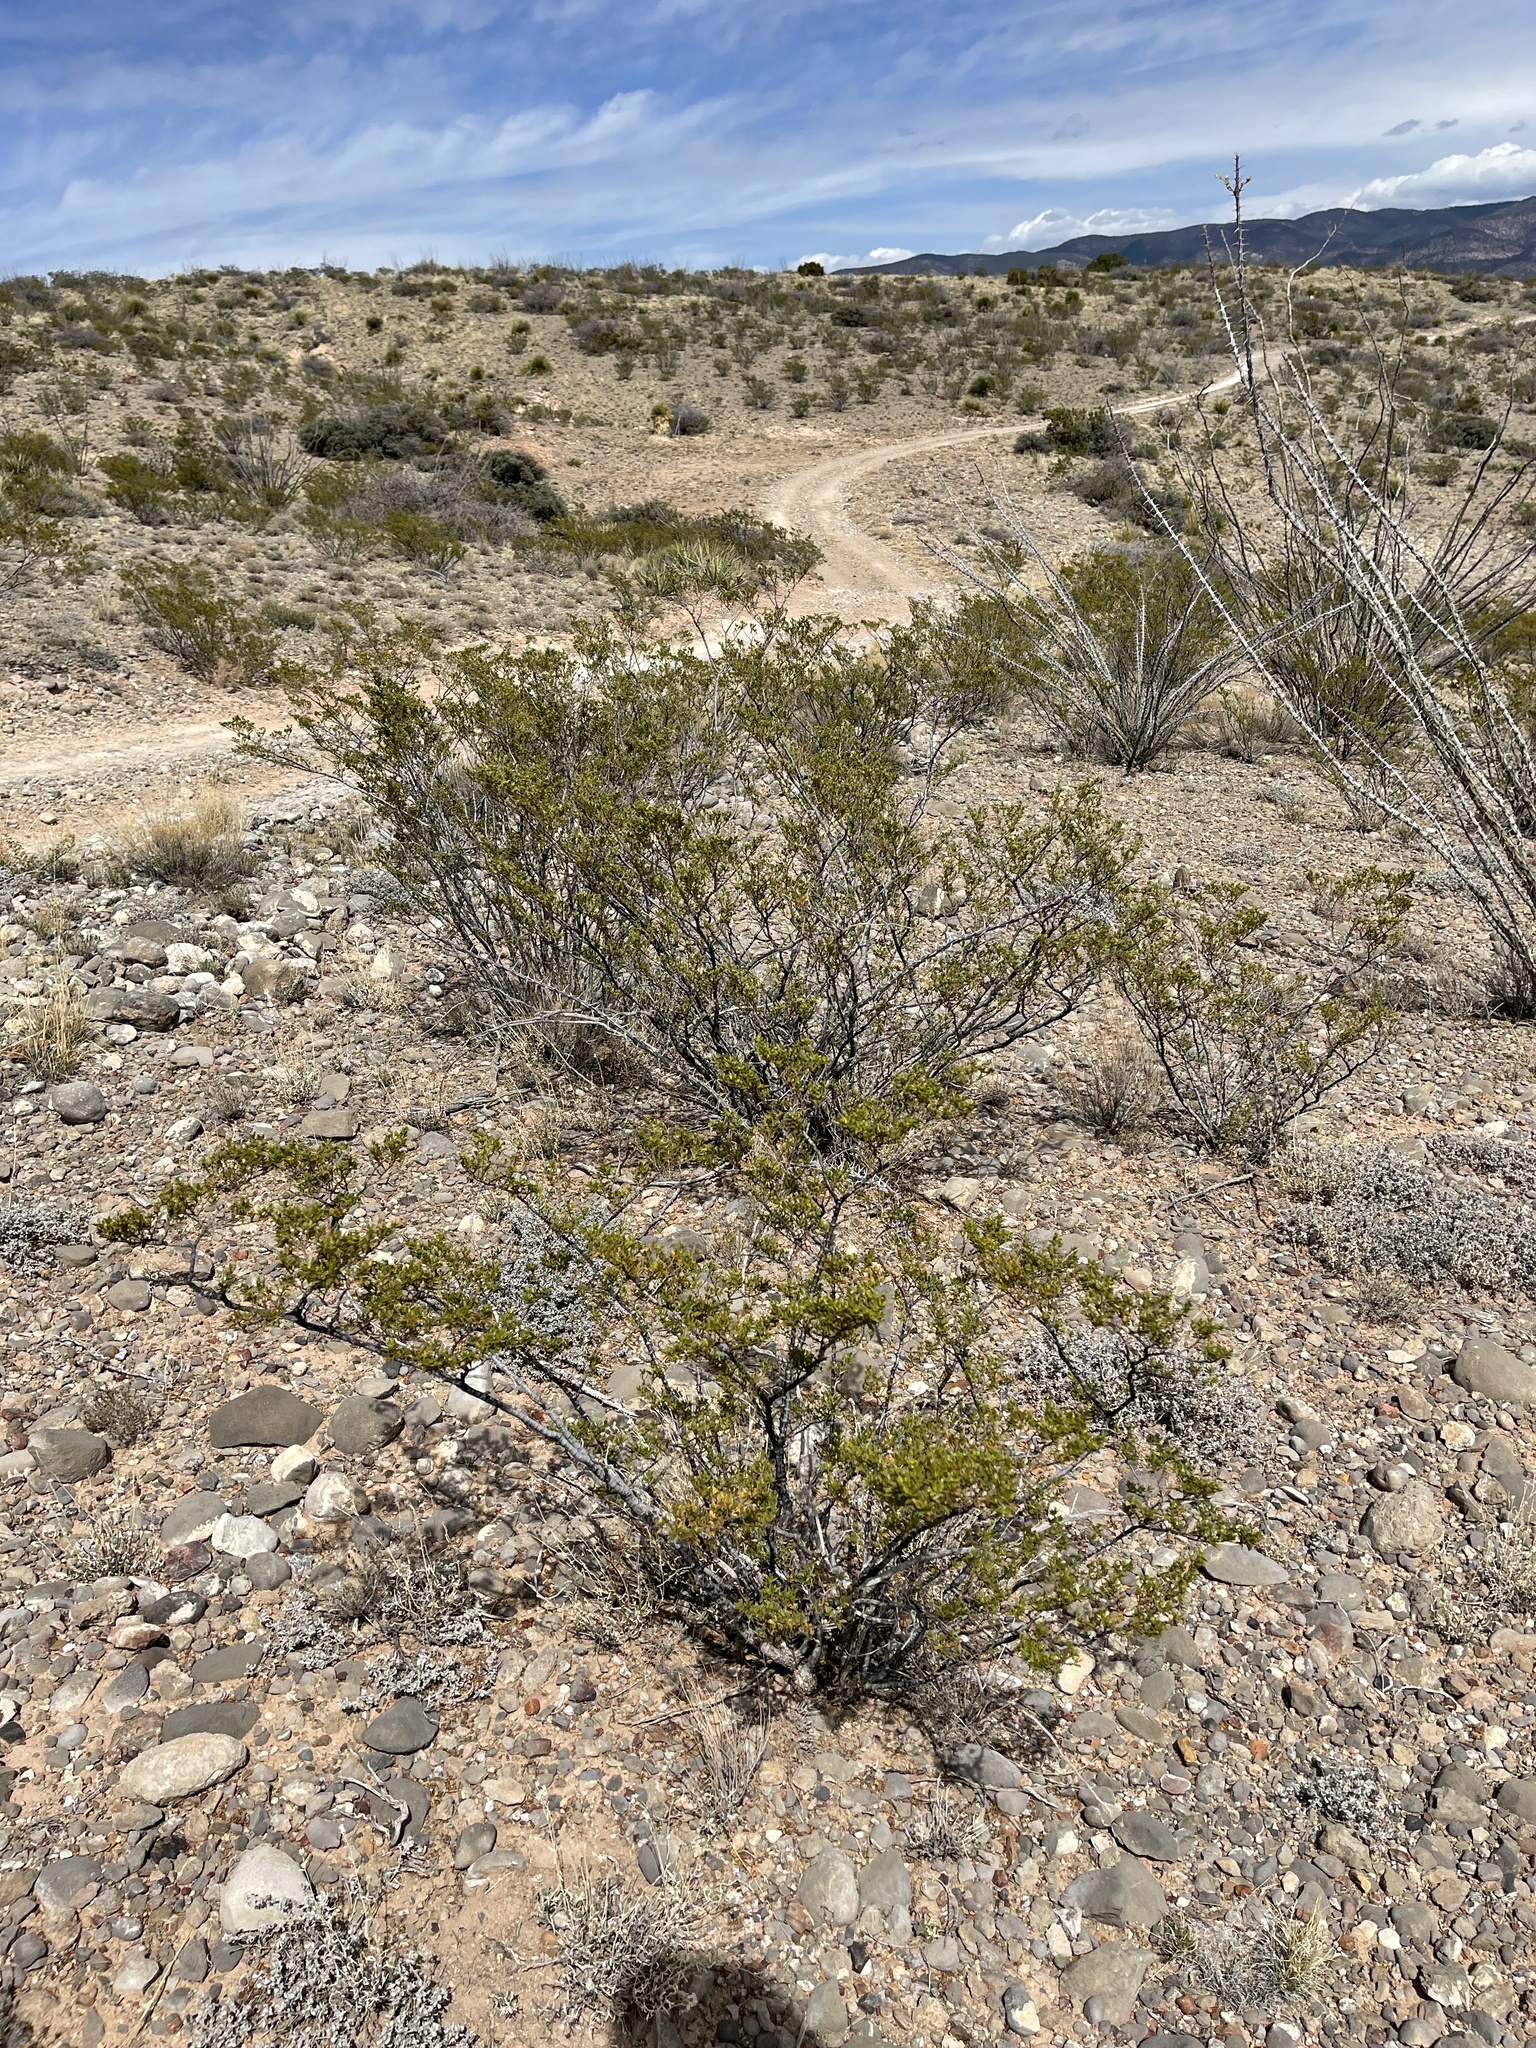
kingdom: Plantae
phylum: Tracheophyta
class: Magnoliopsida
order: Zygophyllales
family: Zygophyllaceae
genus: Larrea
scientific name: Larrea tridentata
